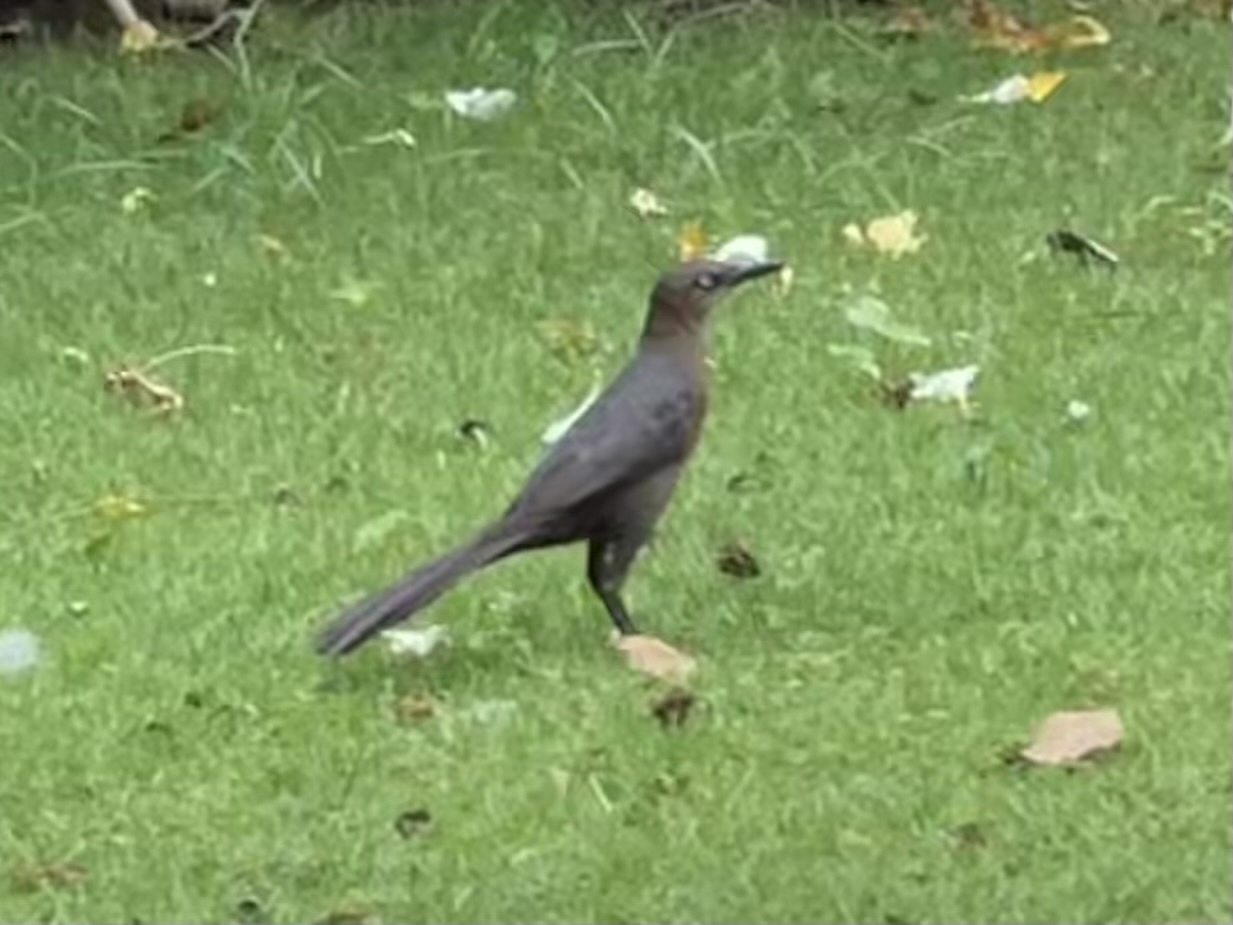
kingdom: Animalia
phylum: Chordata
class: Aves
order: Passeriformes
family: Icteridae
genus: Quiscalus
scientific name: Quiscalus mexicanus
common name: Great-tailed grackle
